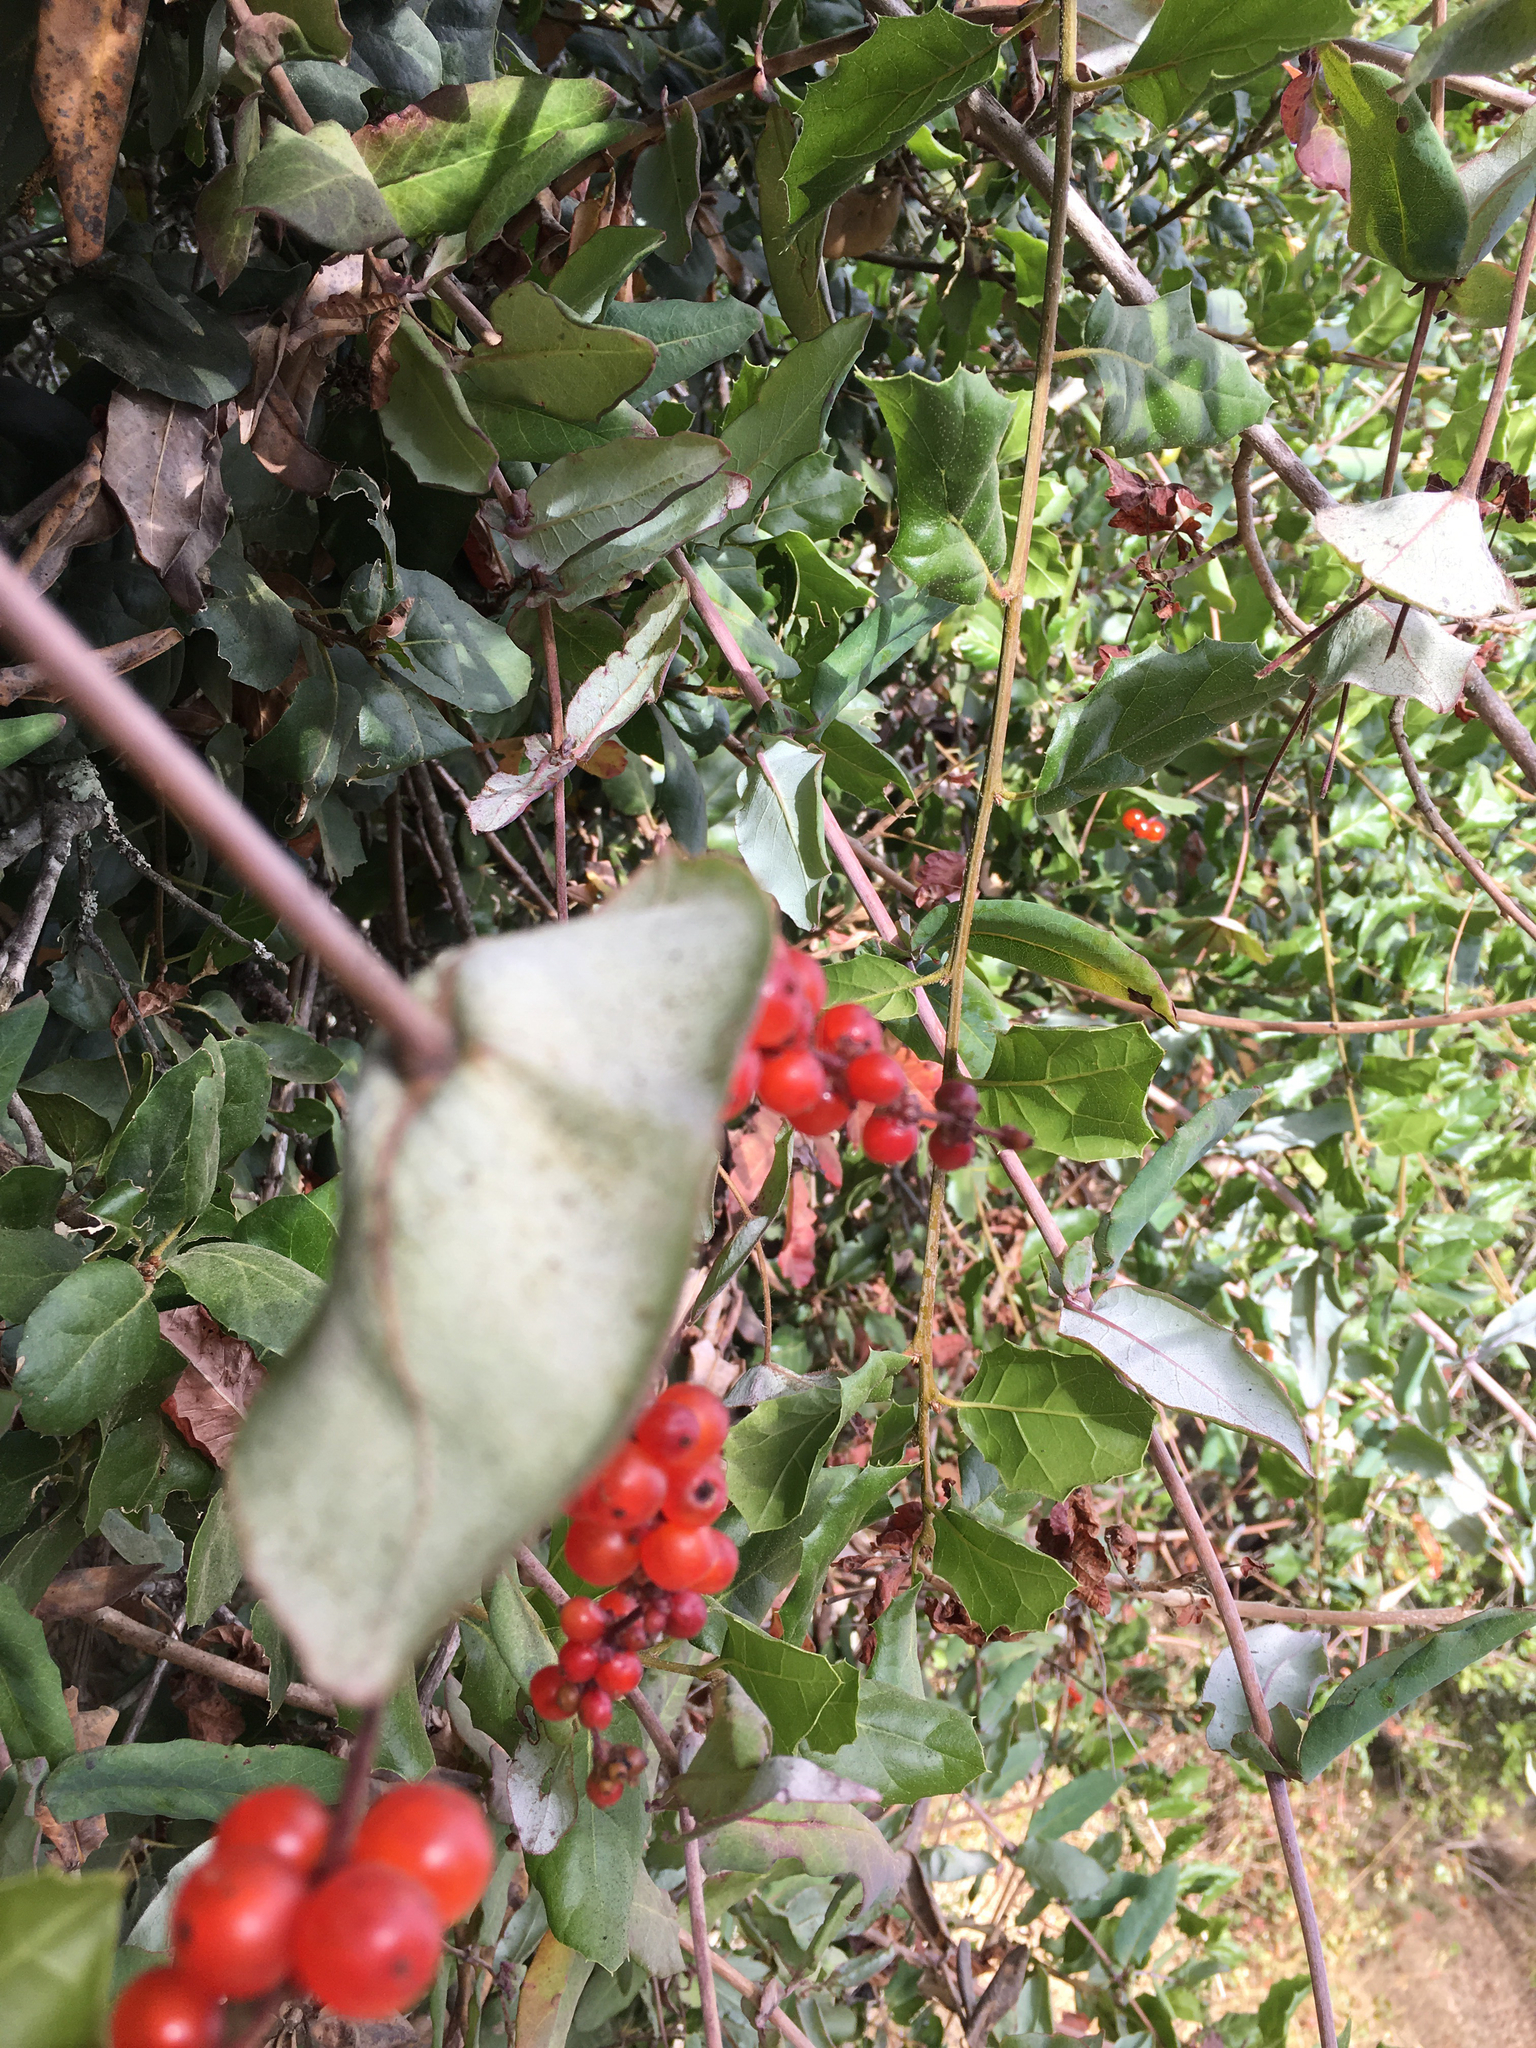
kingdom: Plantae
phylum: Tracheophyta
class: Magnoliopsida
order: Dipsacales
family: Caprifoliaceae
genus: Lonicera
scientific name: Lonicera hispidula
